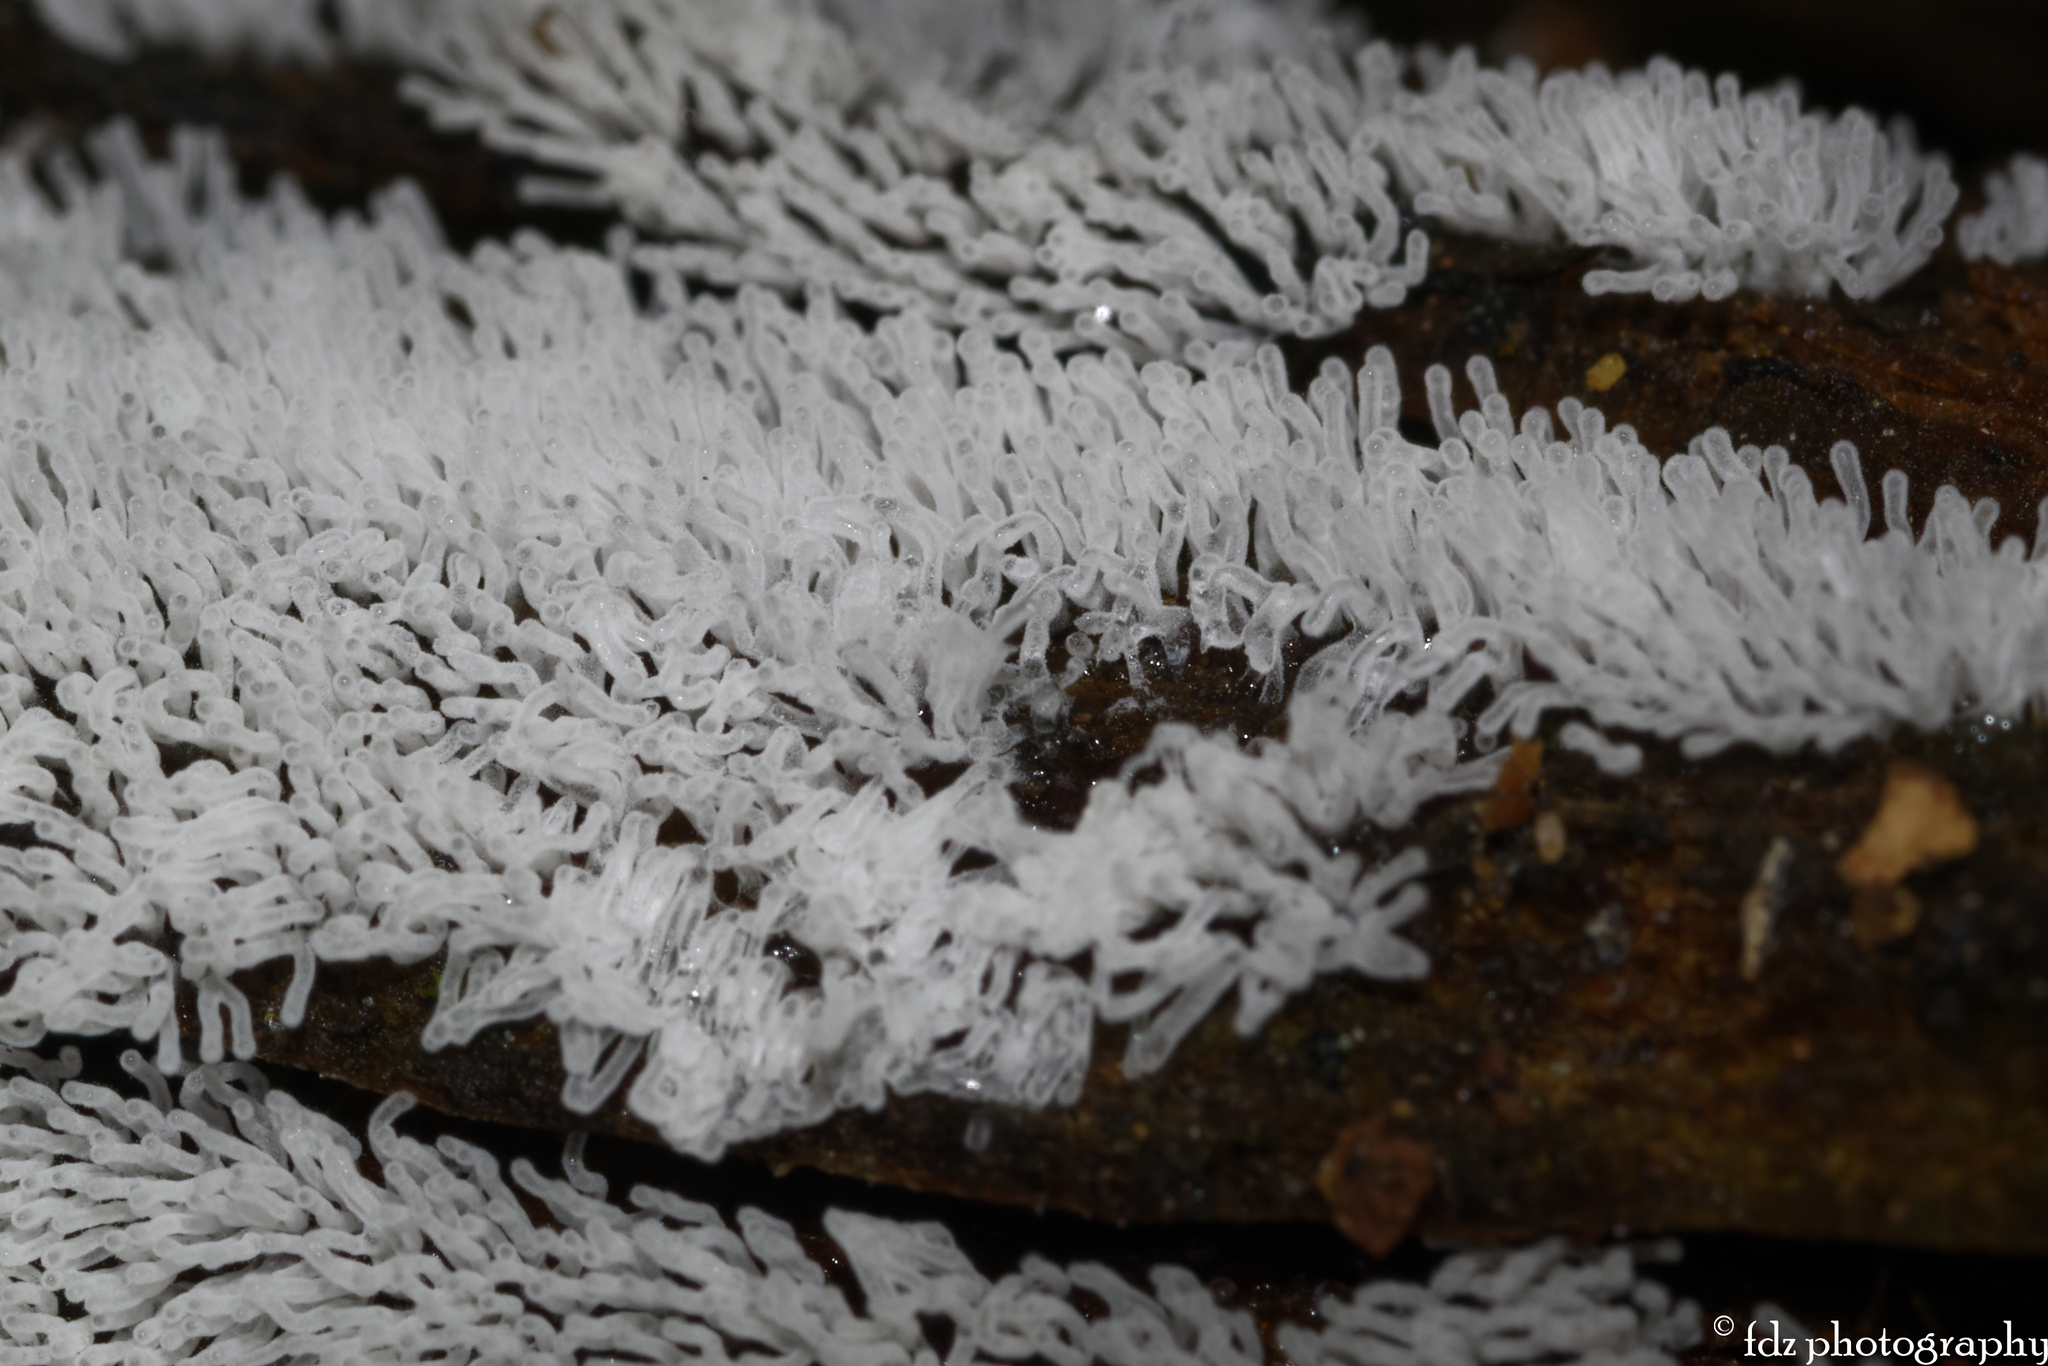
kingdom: Protozoa
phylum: Mycetozoa
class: Protosteliomycetes
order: Ceratiomyxales
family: Ceratiomyxaceae
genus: Ceratiomyxa
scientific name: Ceratiomyxa fruticulosa
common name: Honeycomb coral slime mold
